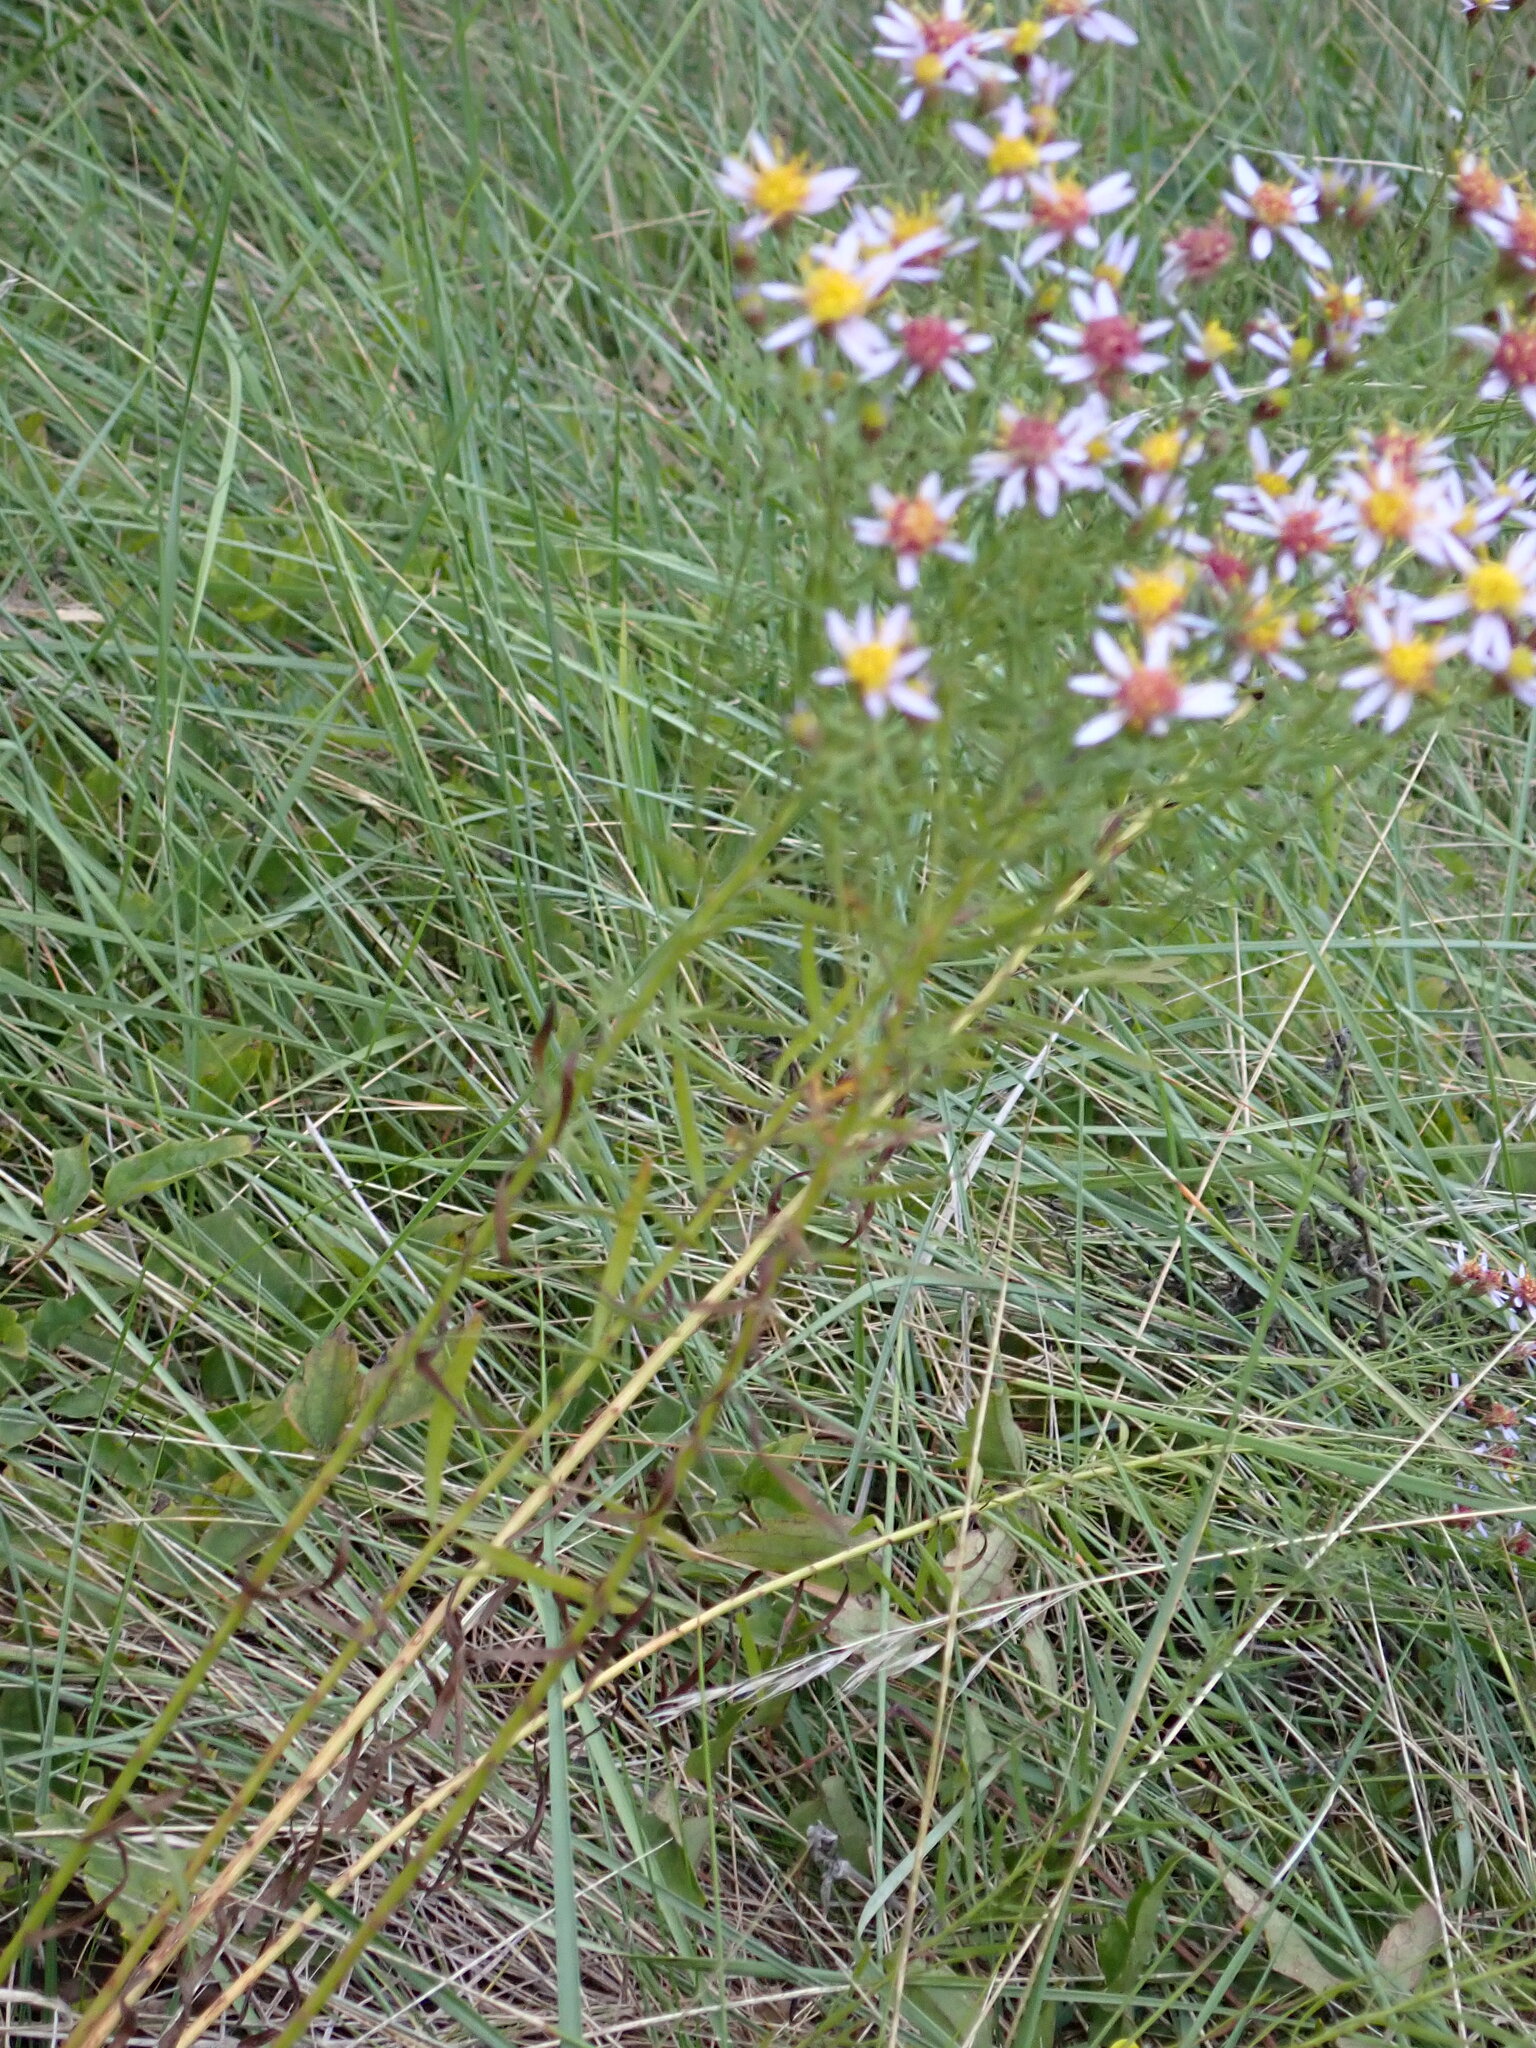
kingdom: Plantae
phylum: Tracheophyta
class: Magnoliopsida
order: Asterales
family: Asteraceae
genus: Galatella
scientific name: Galatella sedifolia
